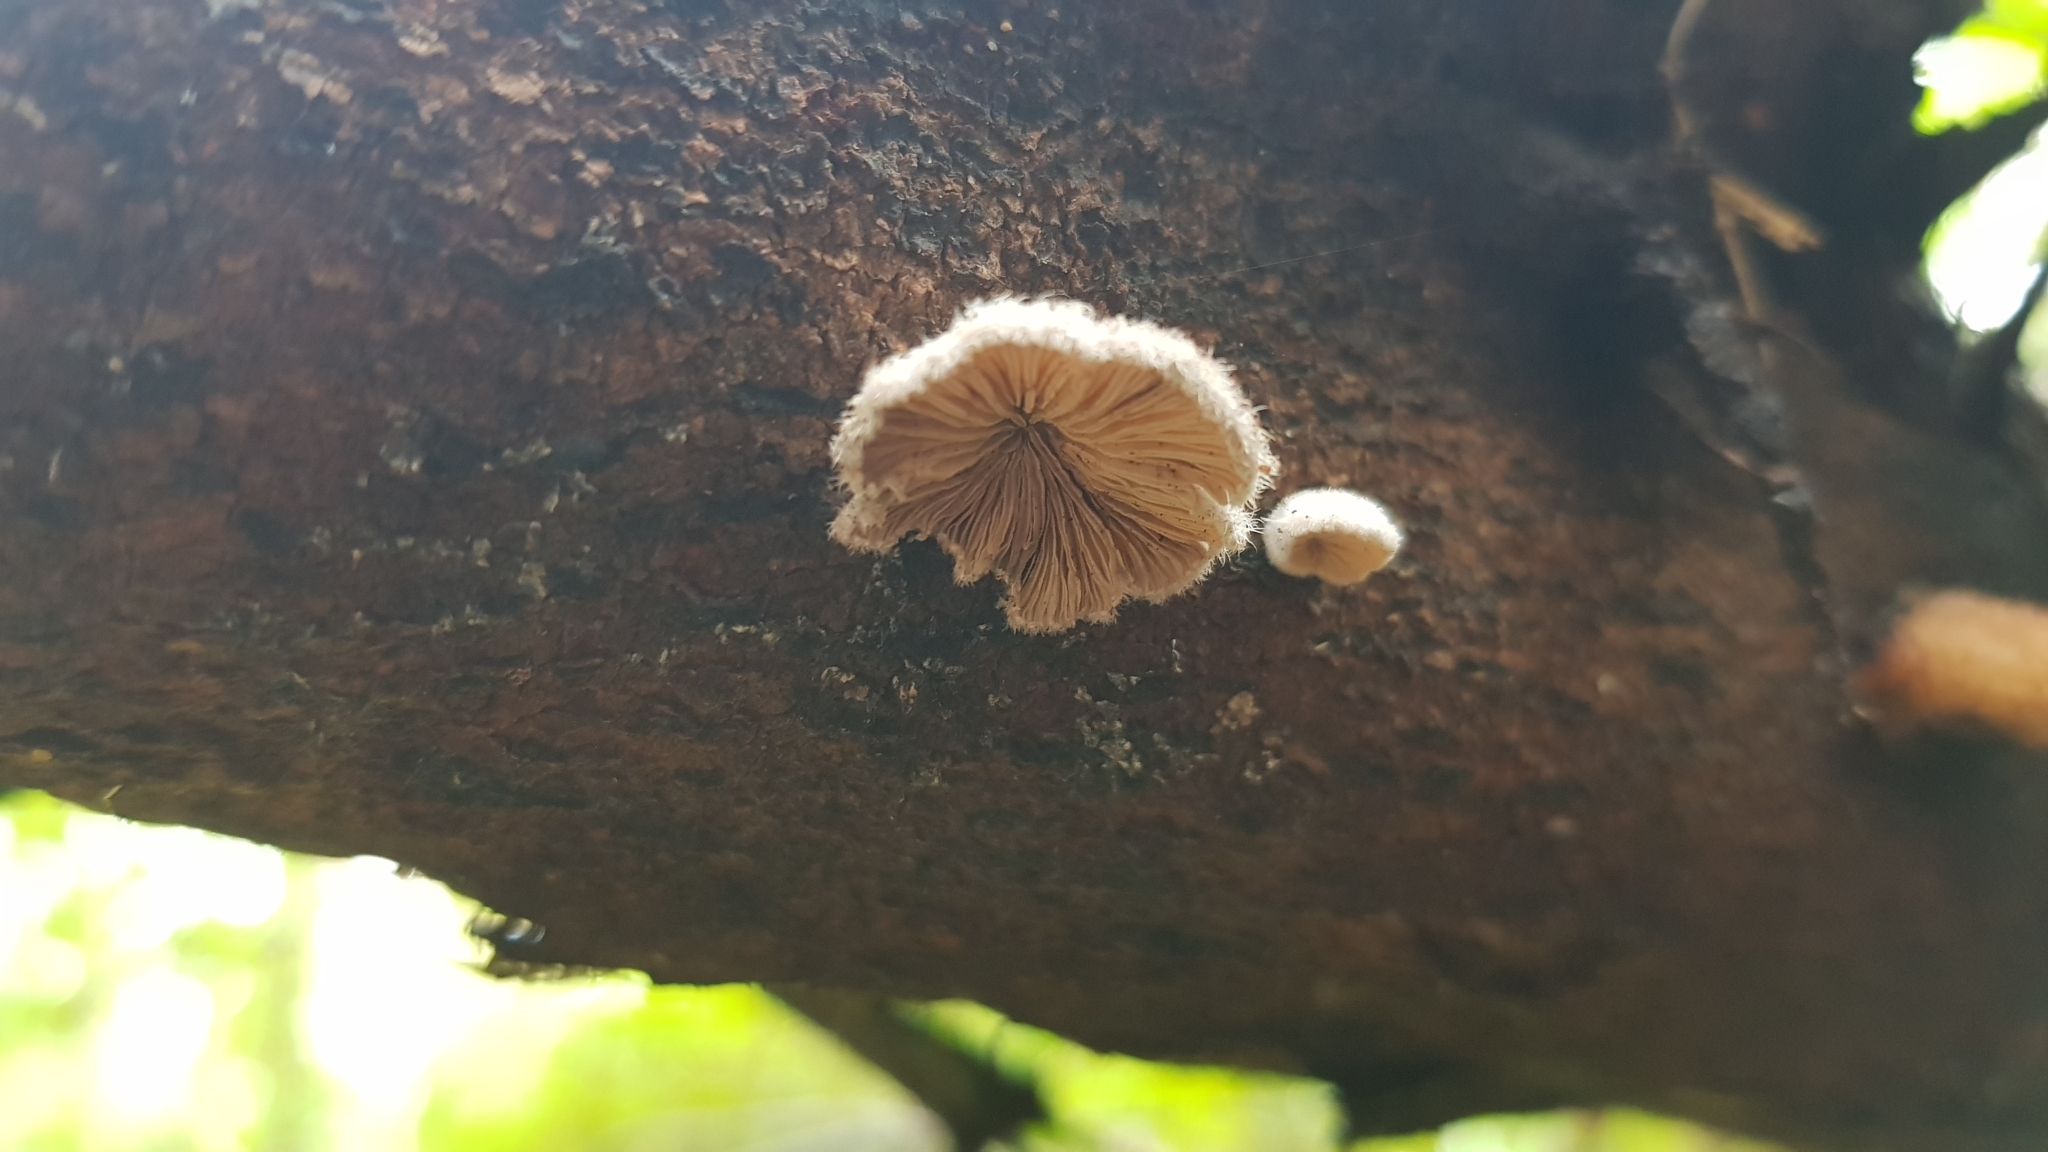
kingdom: Fungi
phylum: Basidiomycota
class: Agaricomycetes
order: Agaricales
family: Schizophyllaceae
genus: Schizophyllum
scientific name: Schizophyllum commune
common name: Common porecrust
